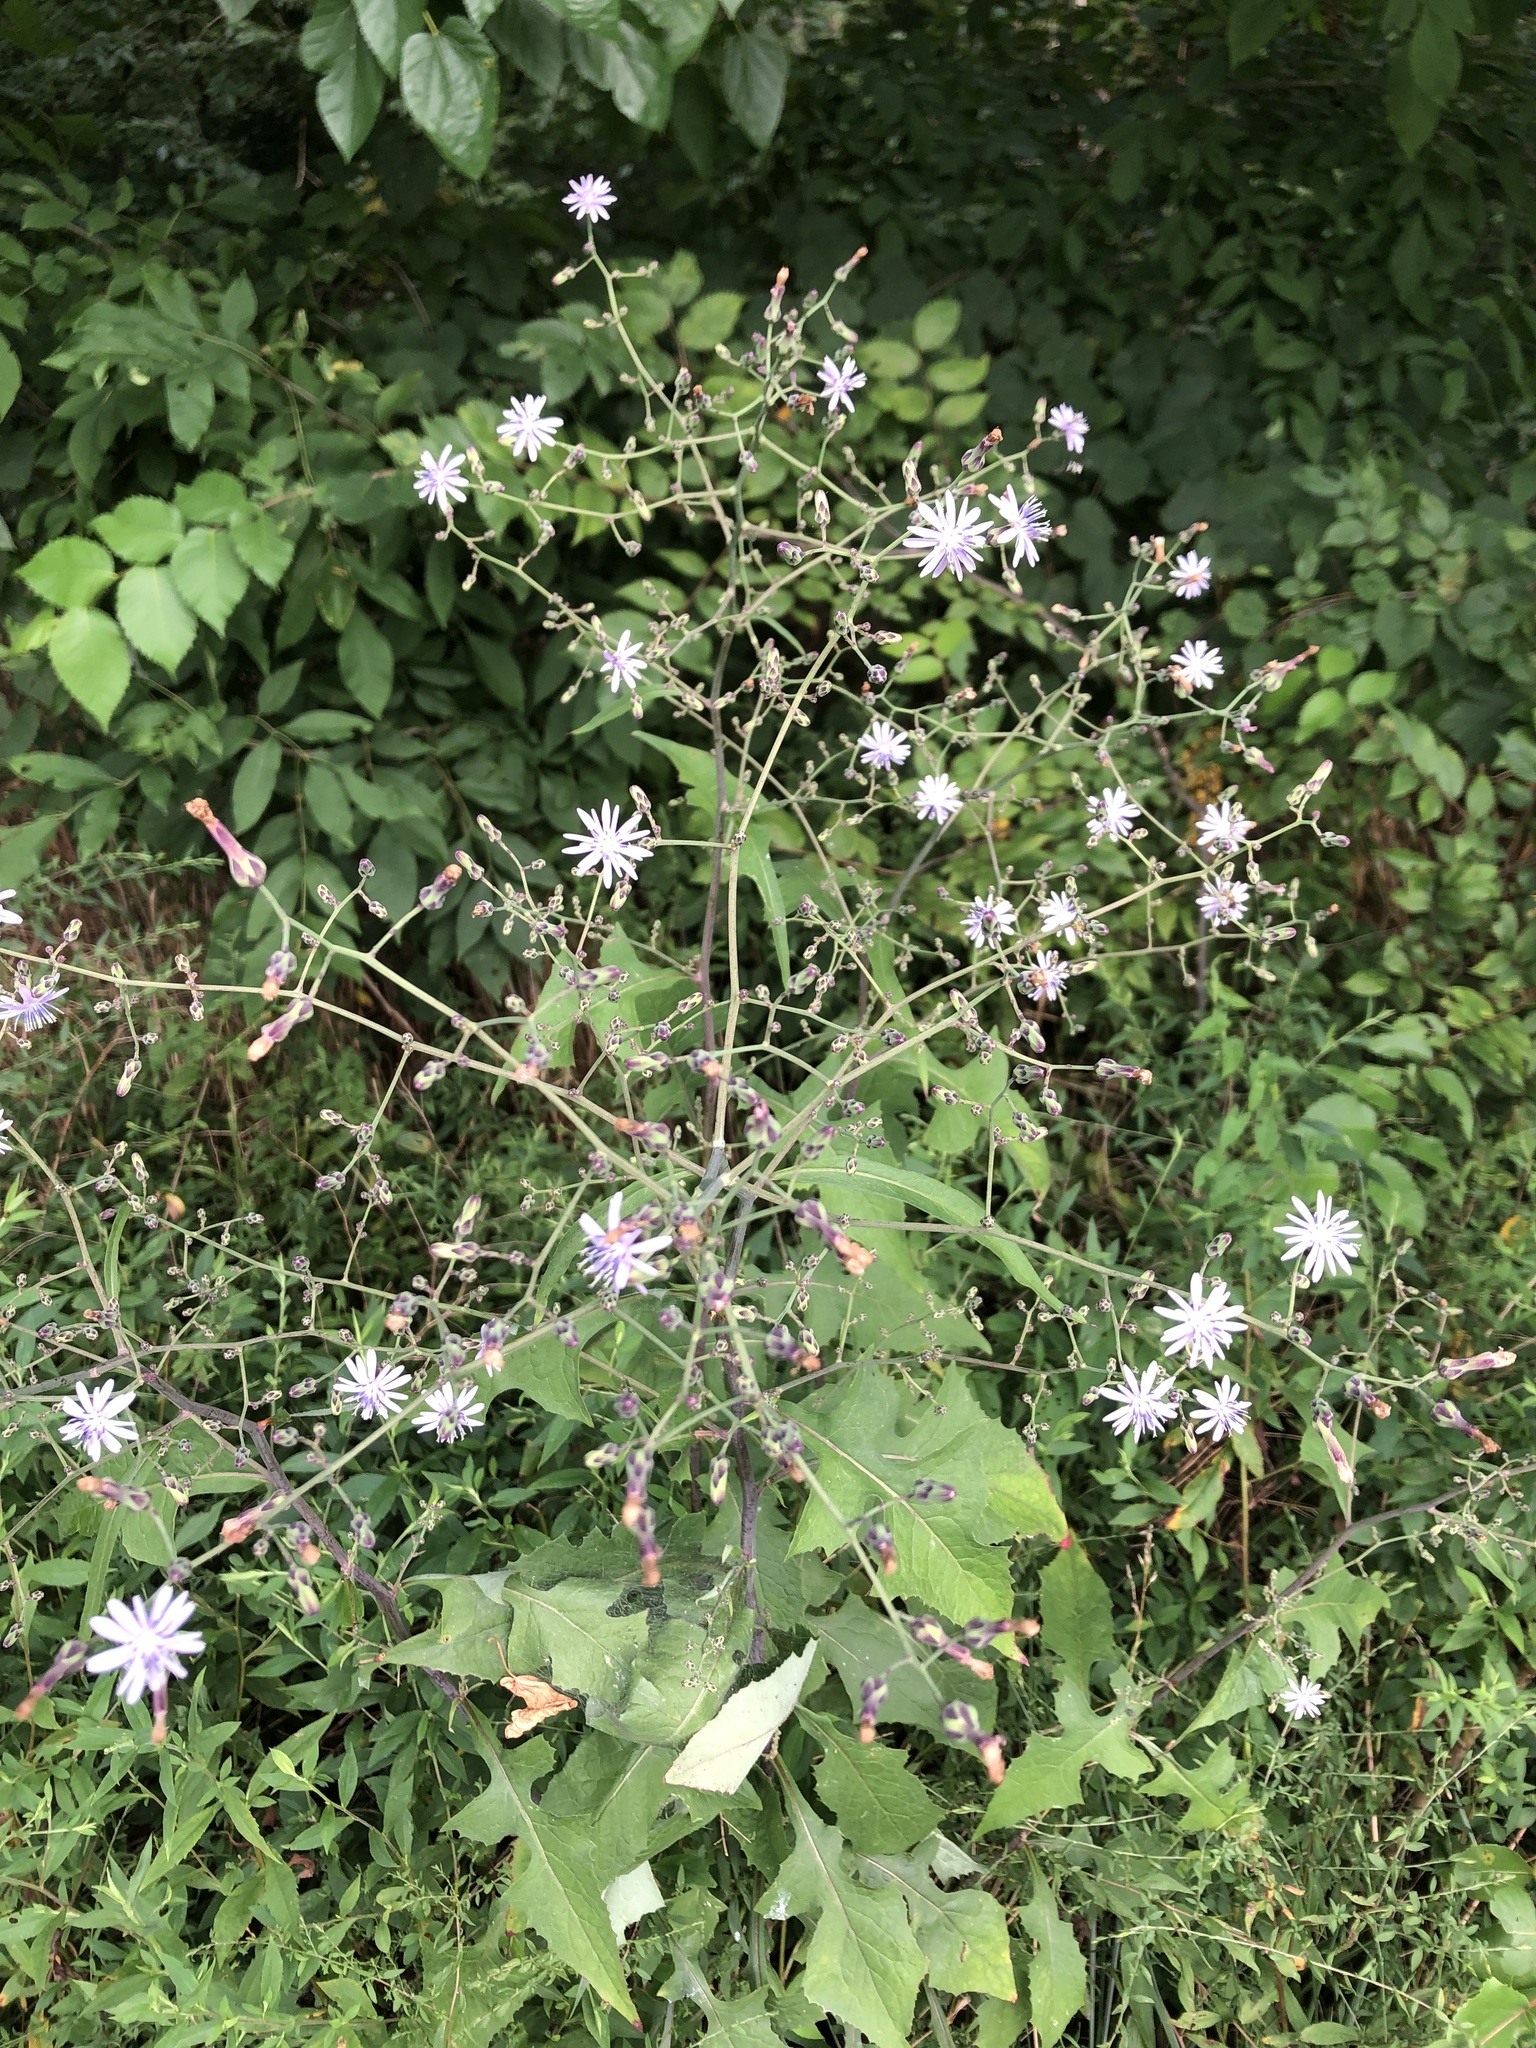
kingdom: Plantae
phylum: Tracheophyta
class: Magnoliopsida
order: Asterales
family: Asteraceae
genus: Lactuca
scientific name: Lactuca floridana
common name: Woodland lettuce
